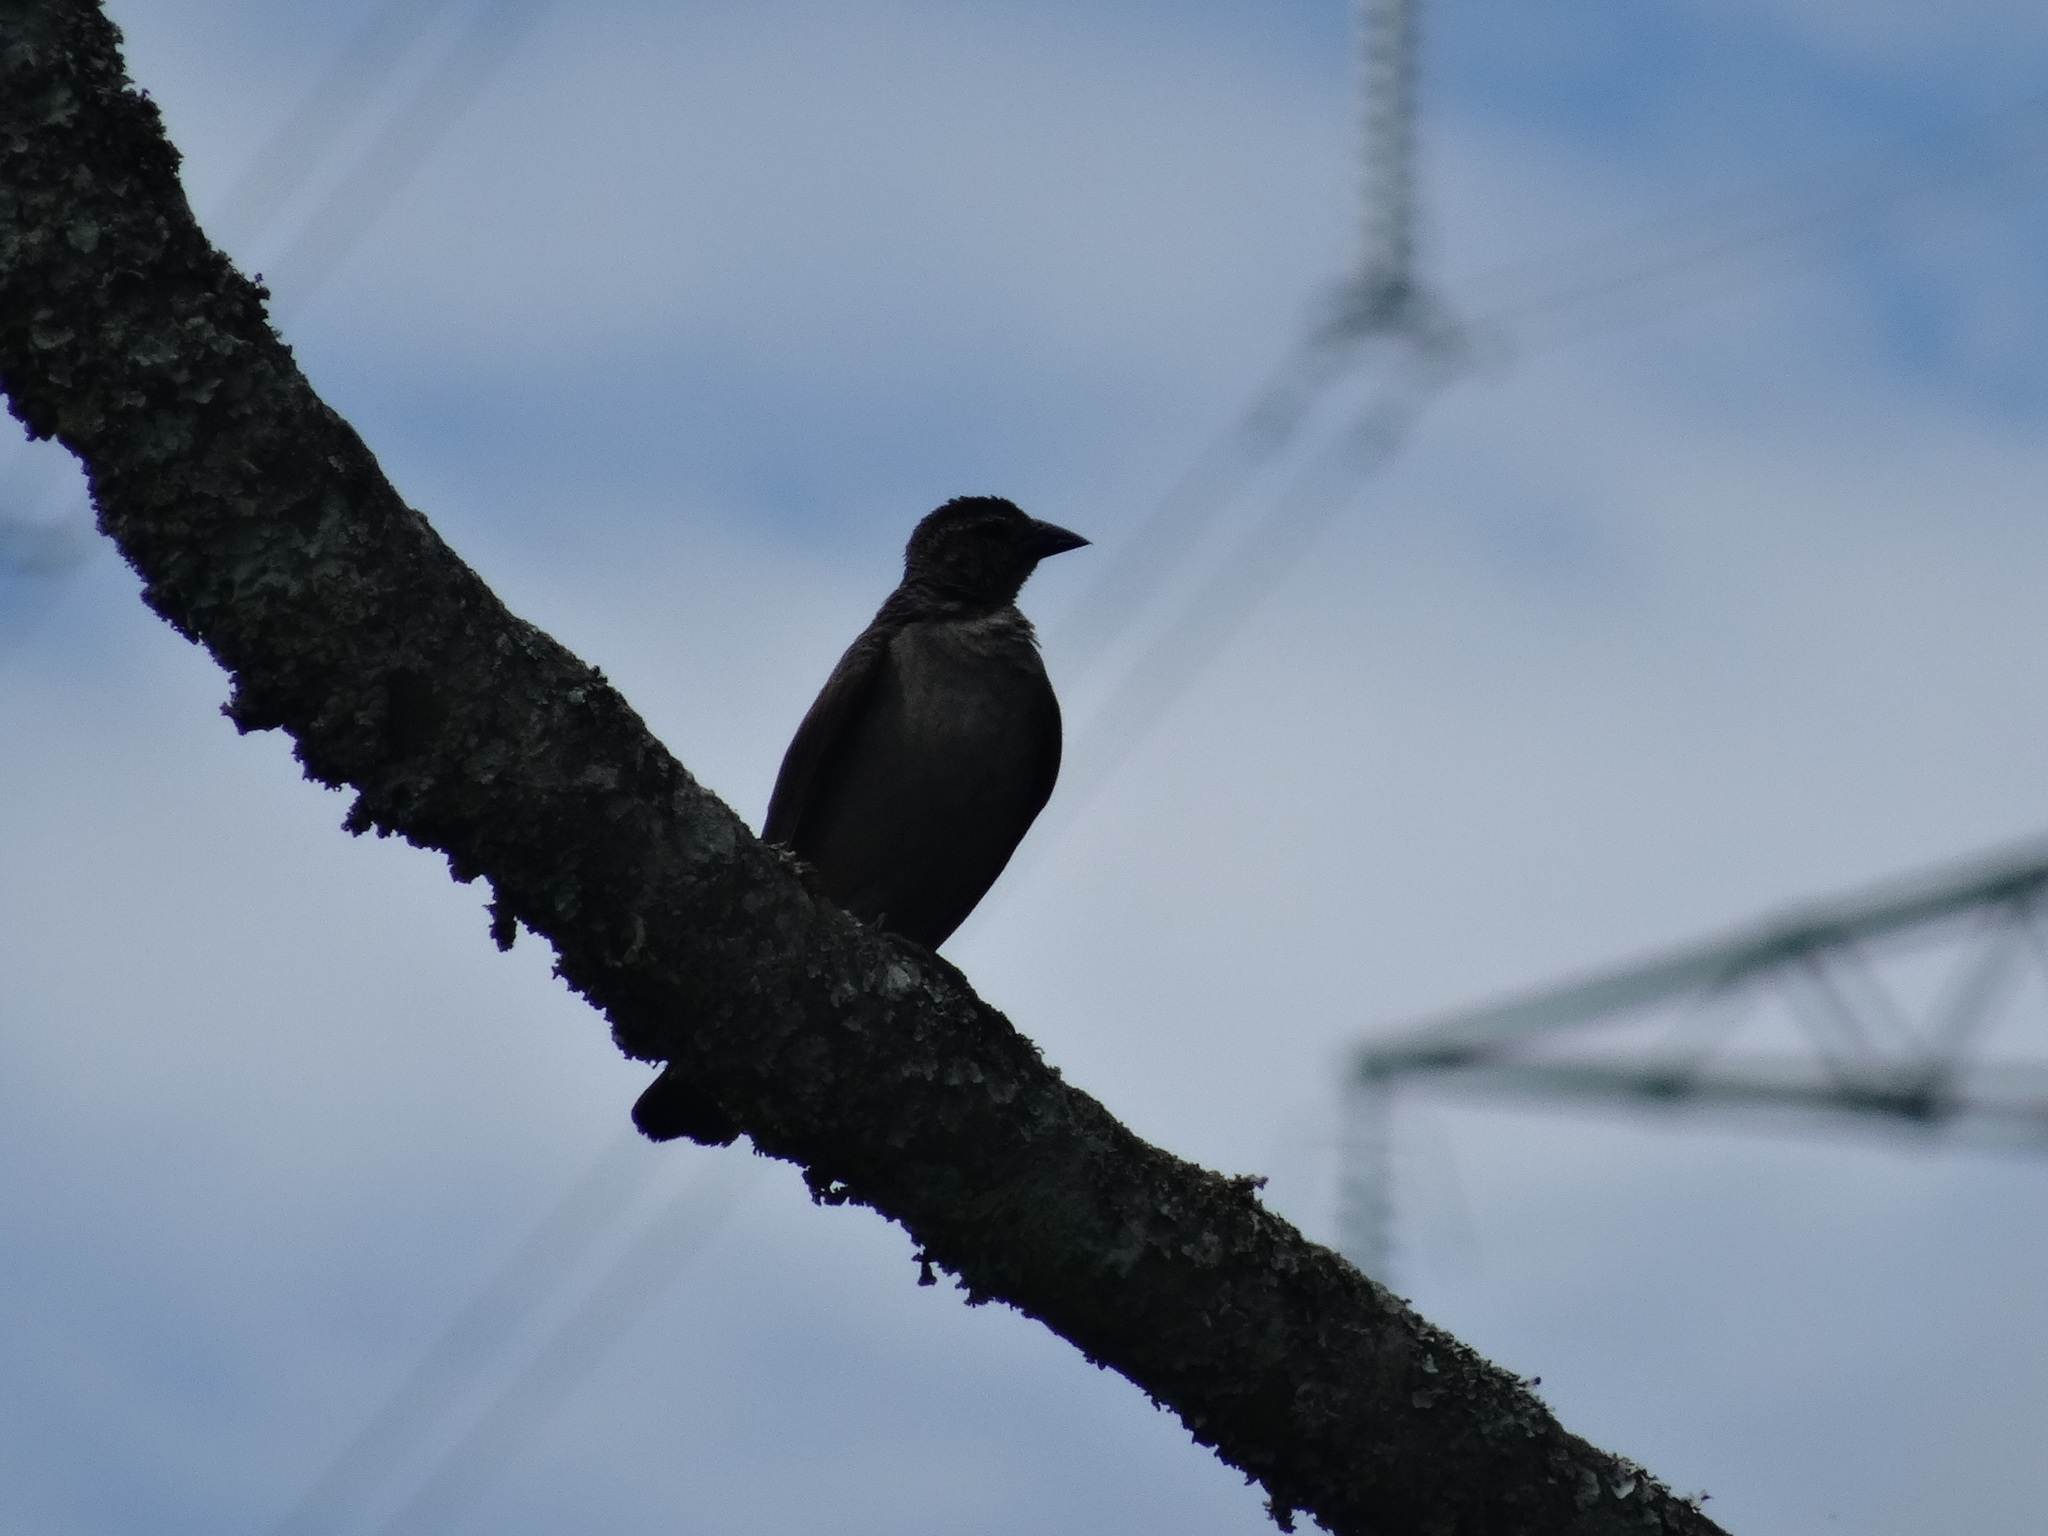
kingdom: Animalia
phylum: Chordata
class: Aves
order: Passeriformes
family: Icteridae
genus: Molothrus
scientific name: Molothrus bonariensis
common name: Shiny cowbird
